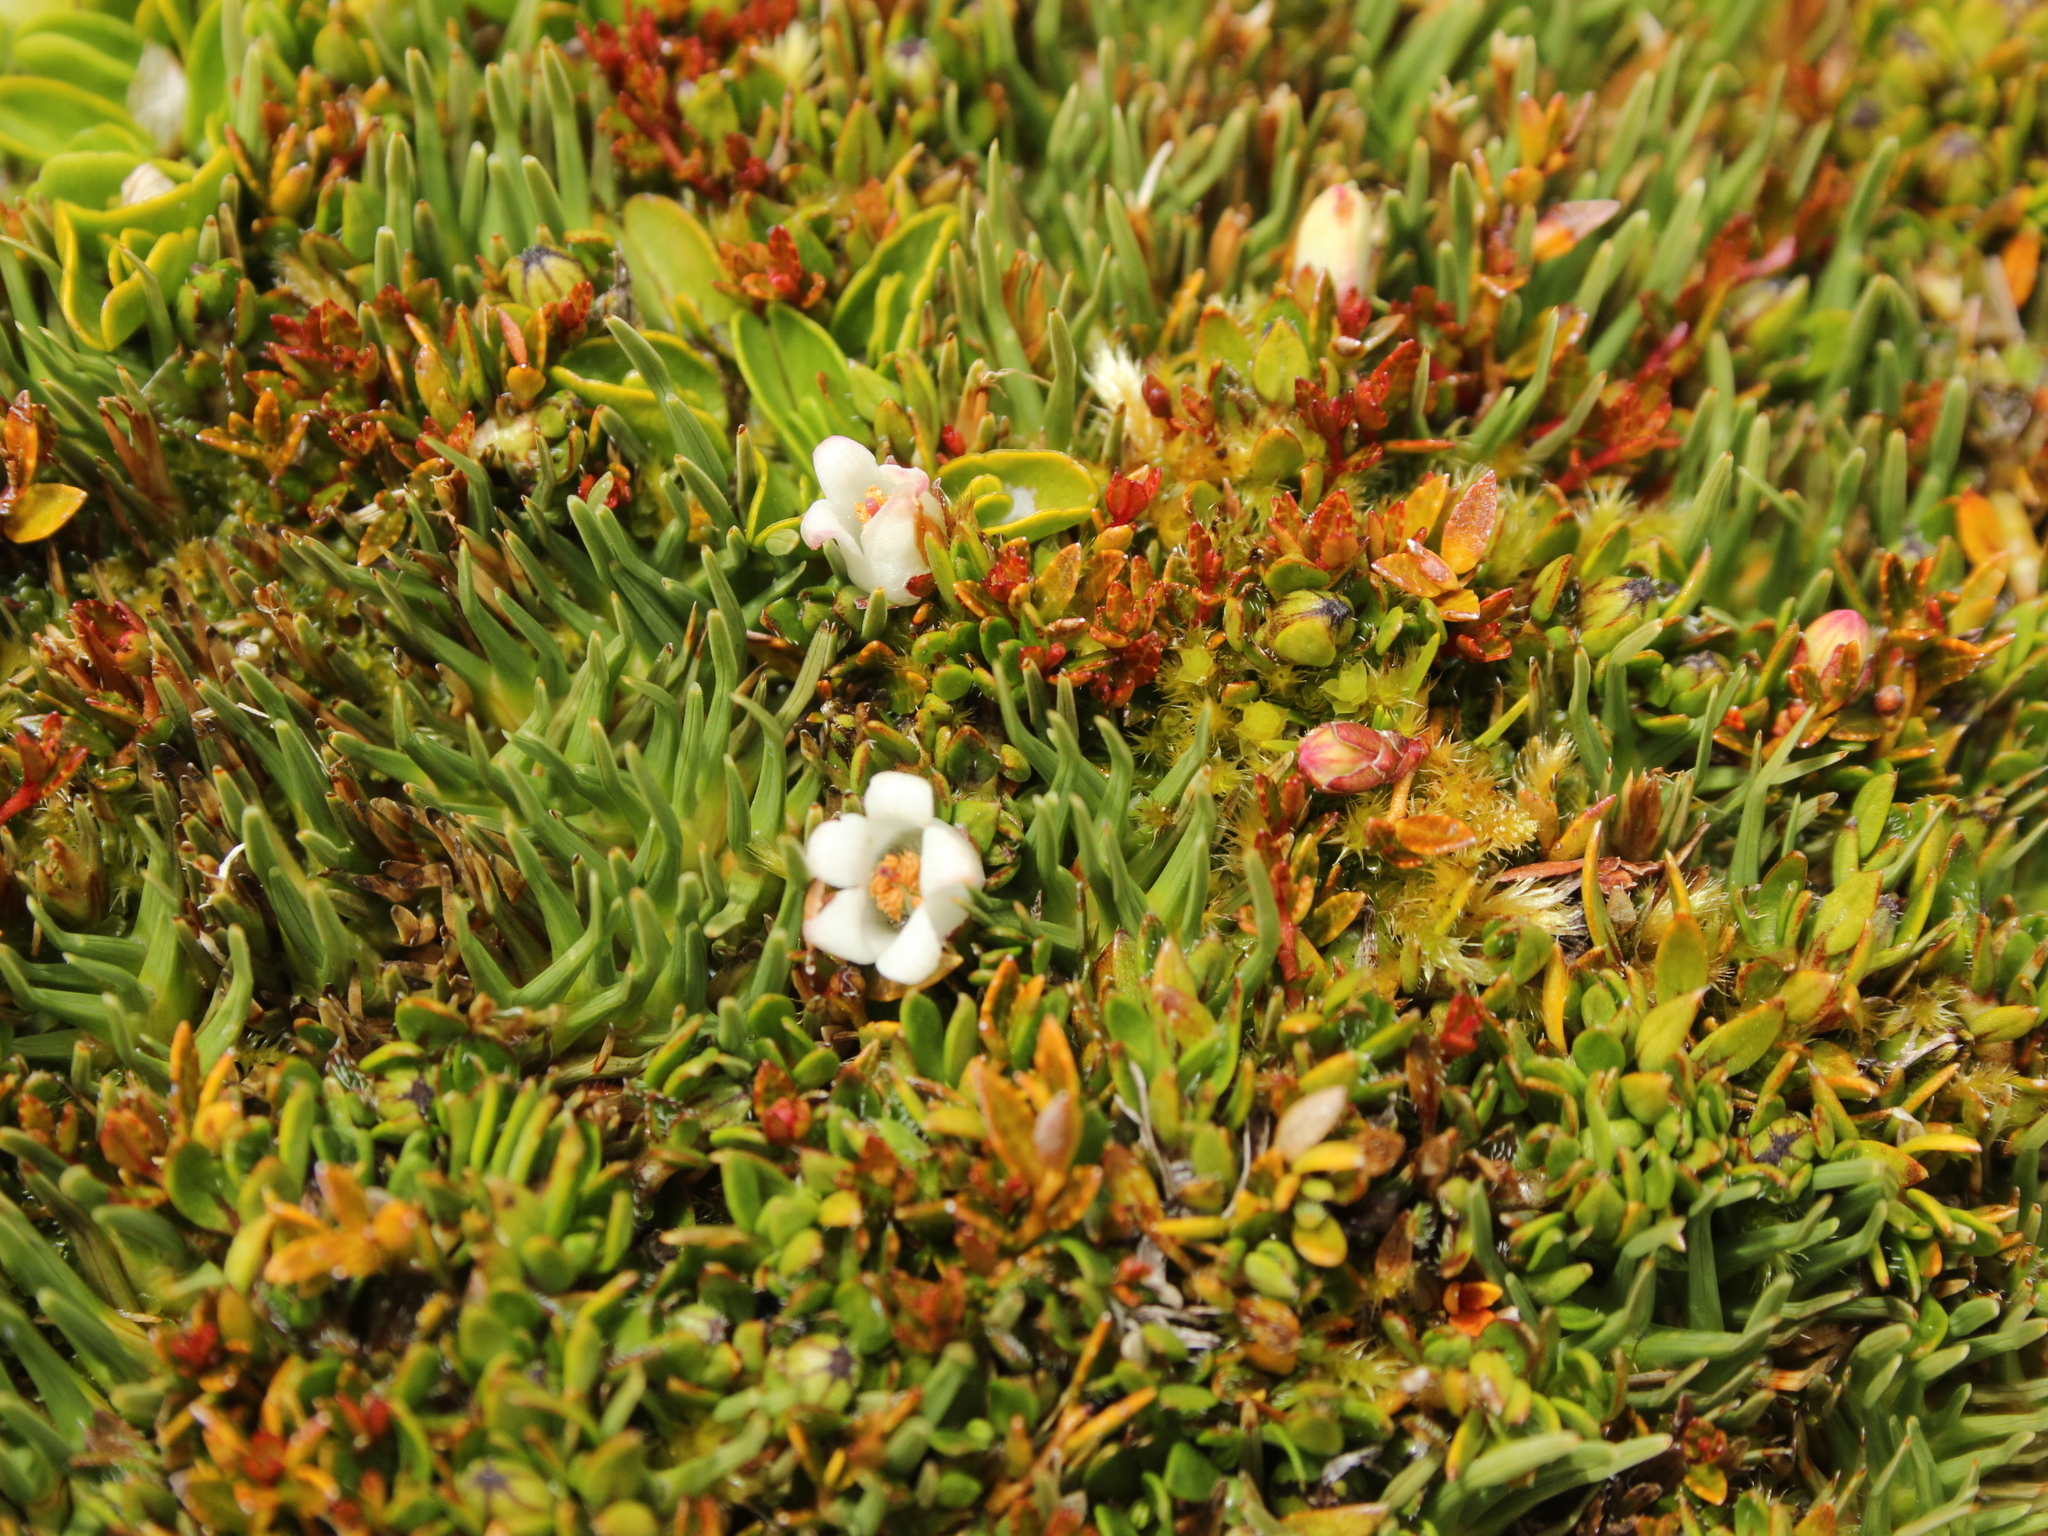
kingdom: Plantae
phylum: Tracheophyta
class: Magnoliopsida
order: Ericales
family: Ericaceae
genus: Gaultheria
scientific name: Gaultheria parvula
